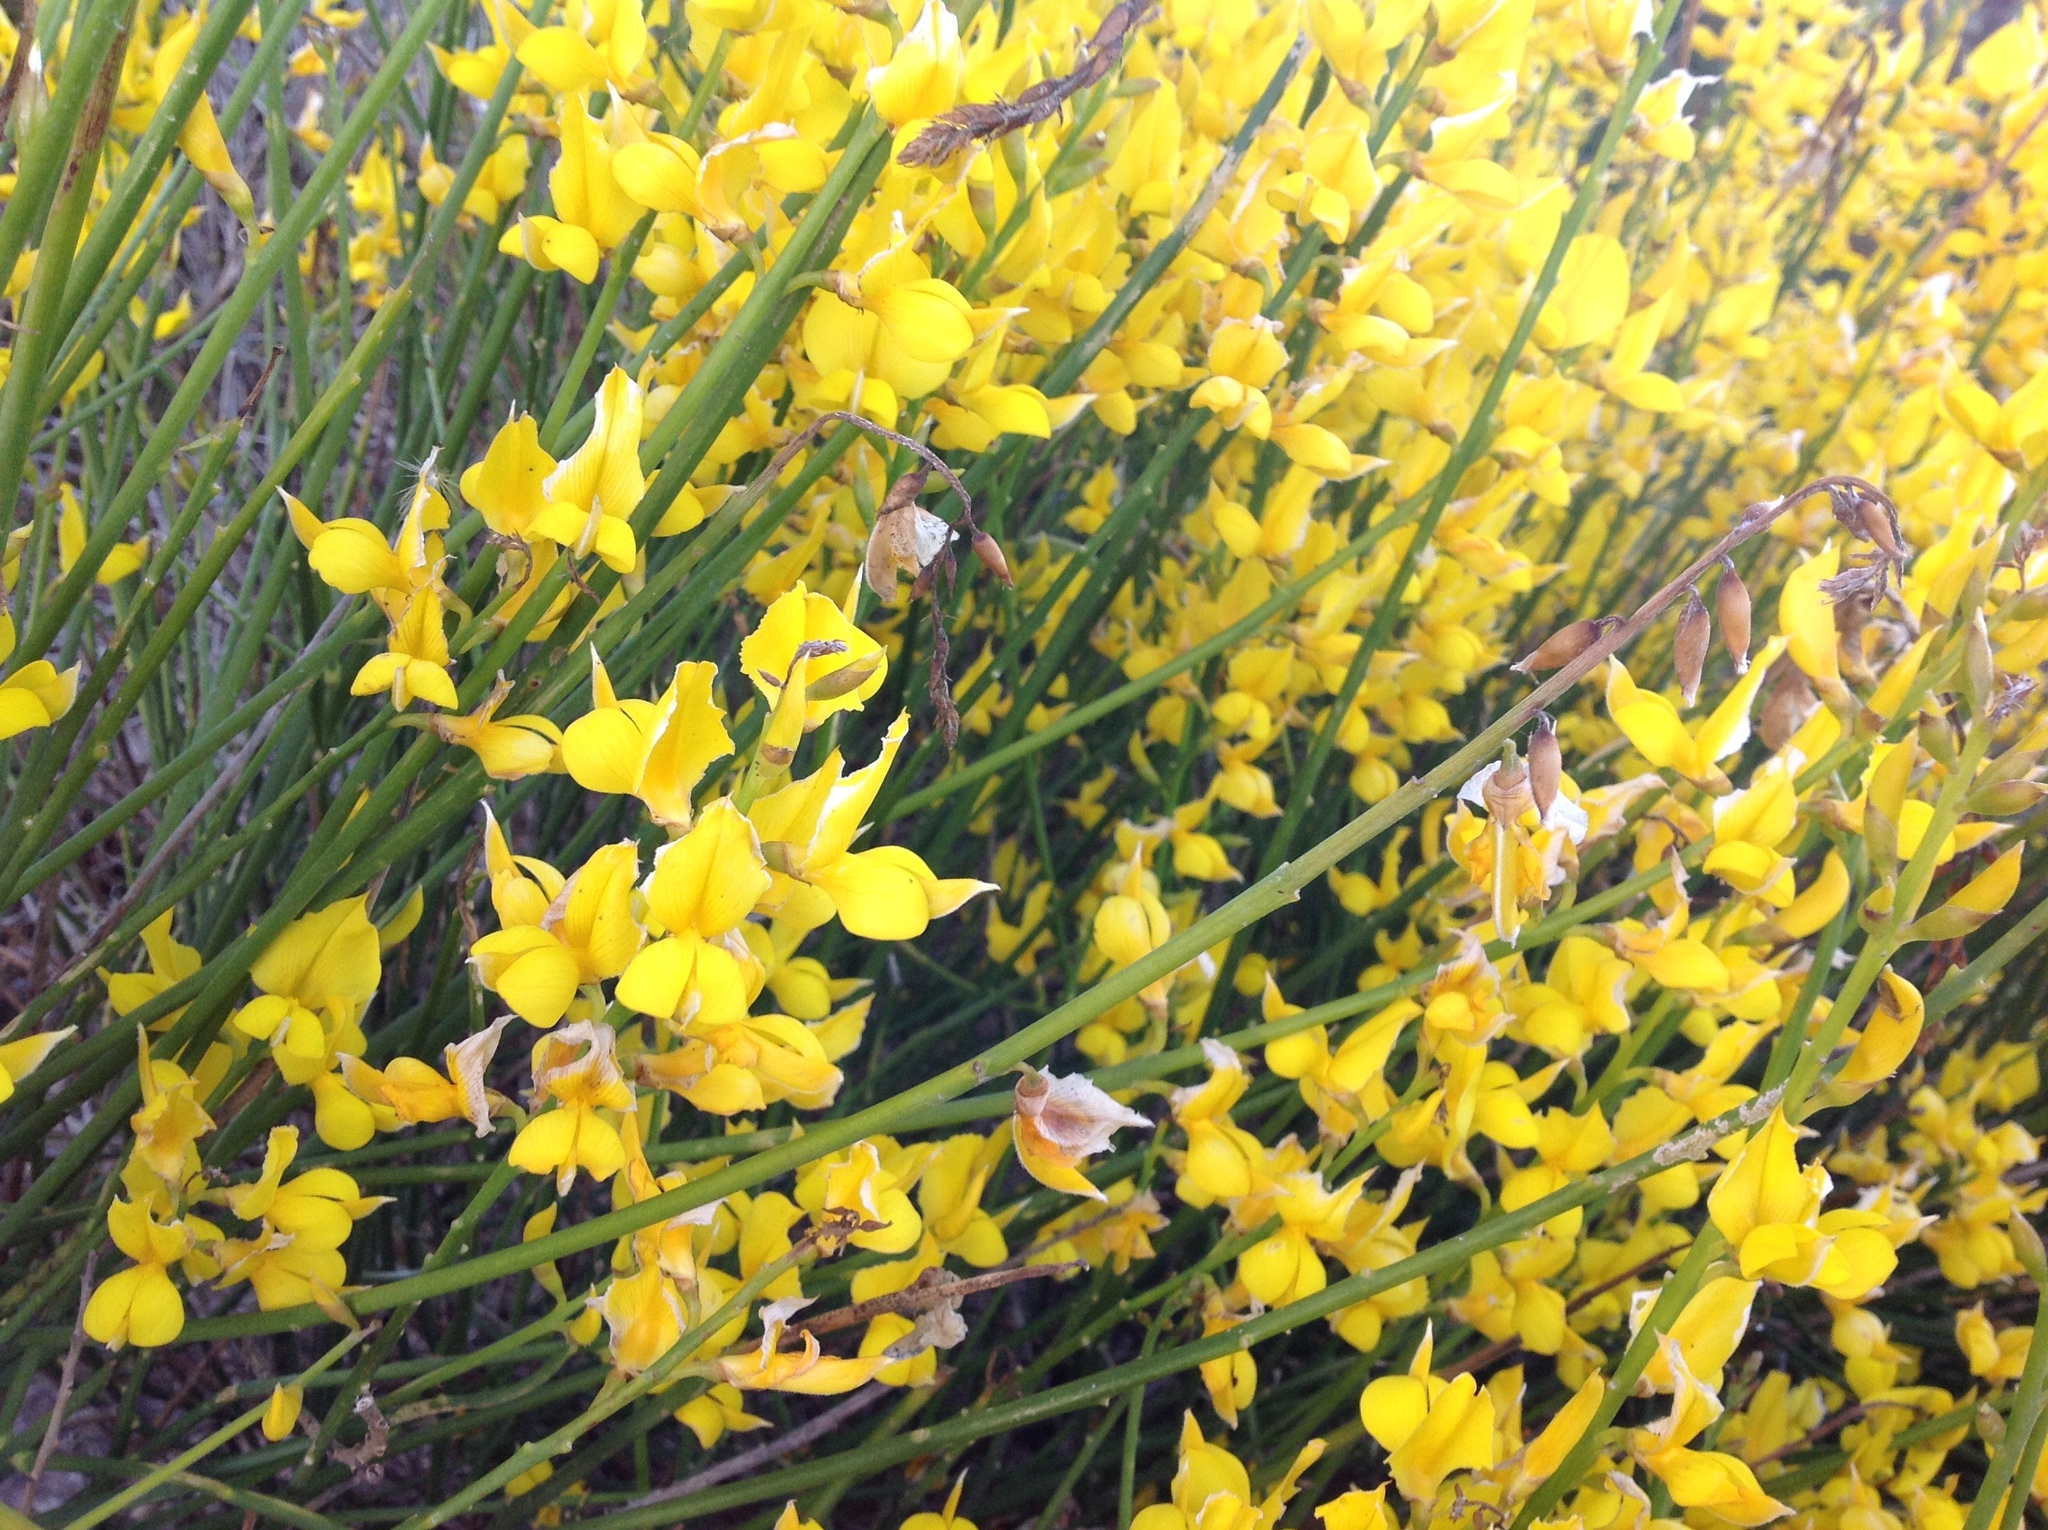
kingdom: Plantae
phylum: Tracheophyta
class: Magnoliopsida
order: Fabales
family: Fabaceae
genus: Spartium
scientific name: Spartium junceum
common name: Spanish broom
